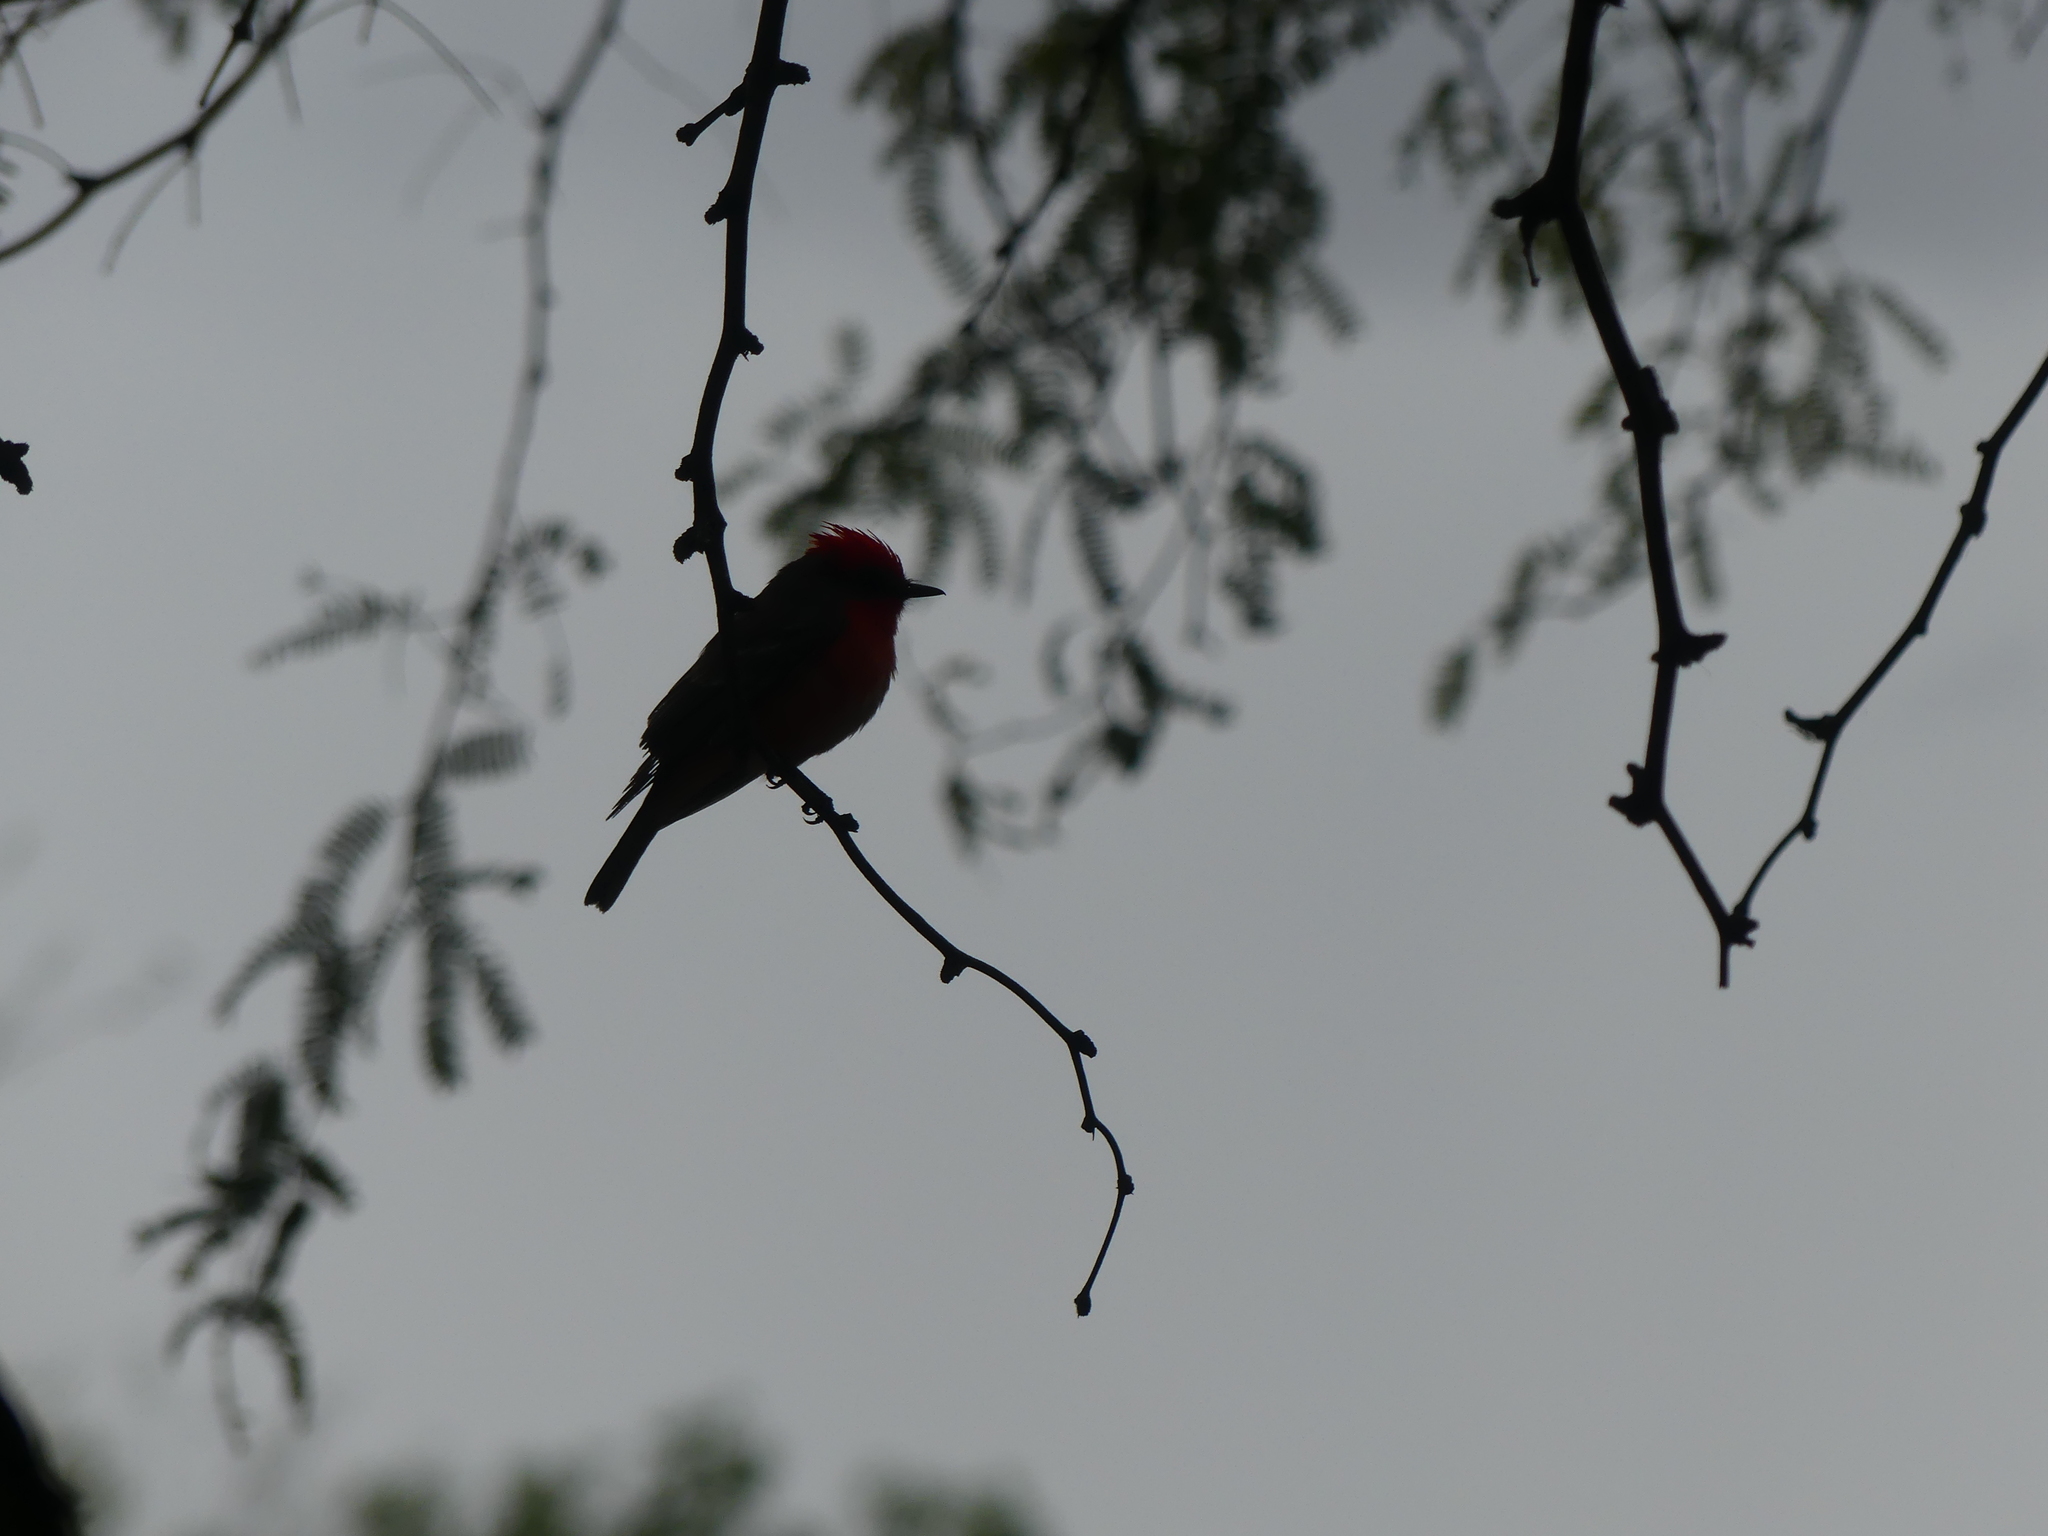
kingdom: Animalia
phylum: Chordata
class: Aves
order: Passeriformes
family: Tyrannidae
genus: Pyrocephalus
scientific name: Pyrocephalus rubinus
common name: Vermilion flycatcher
